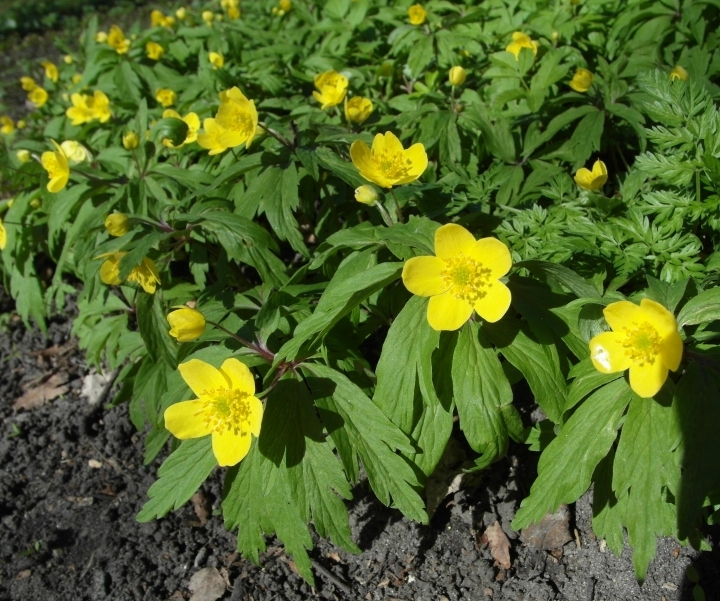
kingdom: Plantae
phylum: Tracheophyta
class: Magnoliopsida
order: Ranunculales
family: Ranunculaceae
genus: Anemone
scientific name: Anemone ranunculoides
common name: Yellow anemone
